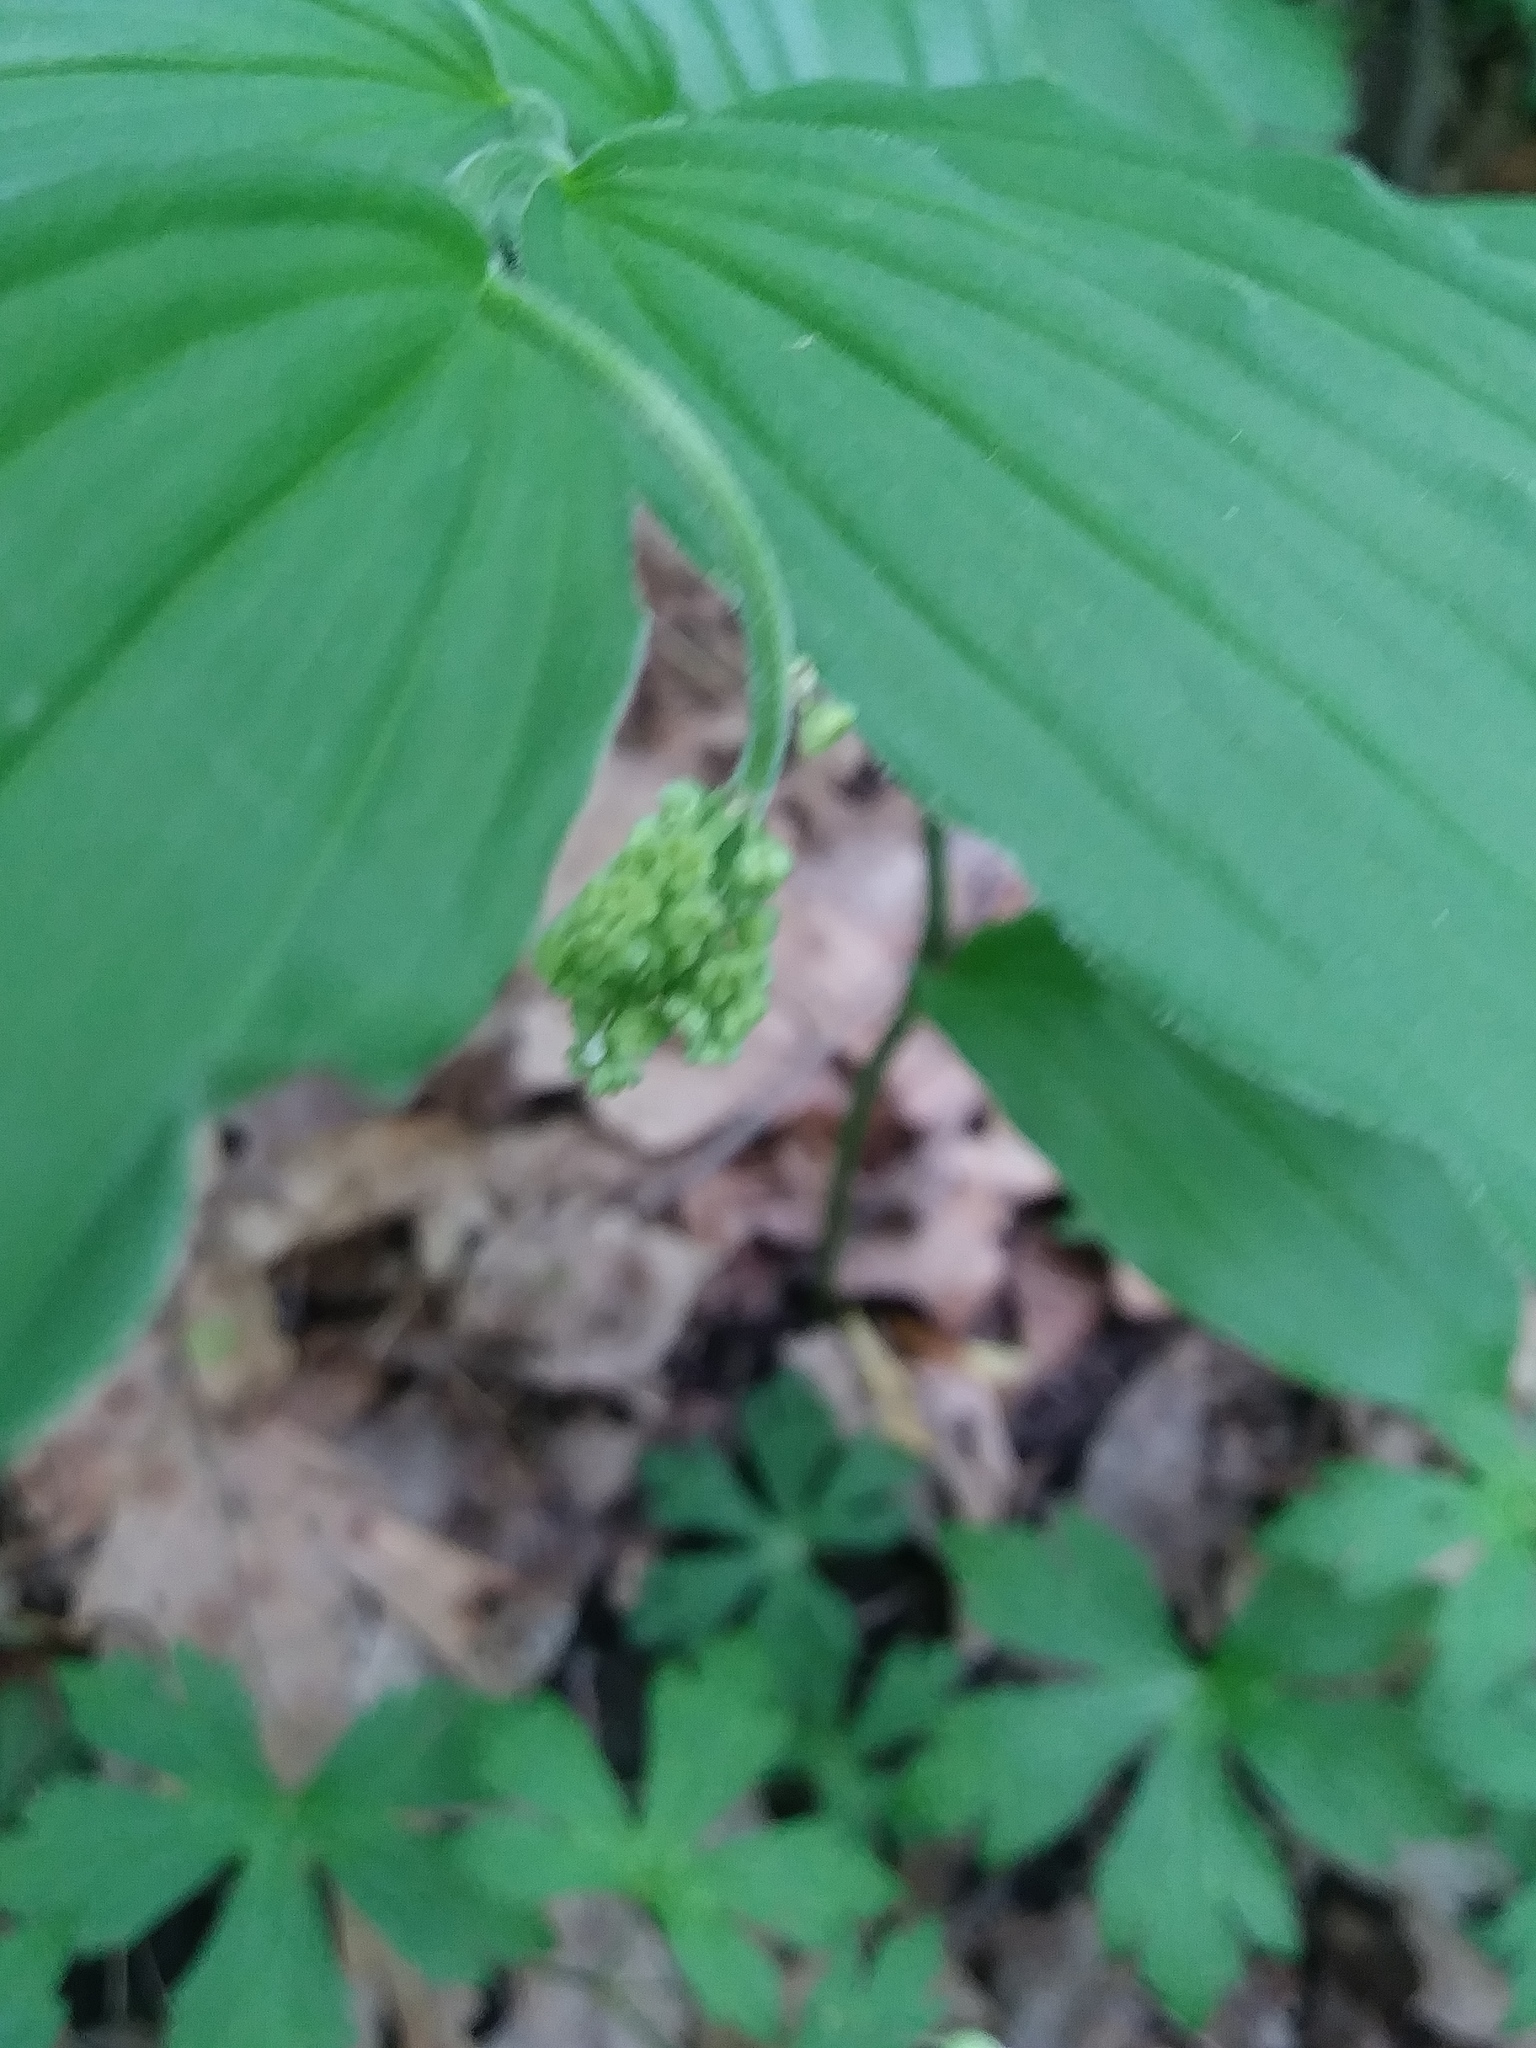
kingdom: Plantae
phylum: Tracheophyta
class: Liliopsida
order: Asparagales
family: Asparagaceae
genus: Maianthemum
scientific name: Maianthemum racemosum
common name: False spikenard
